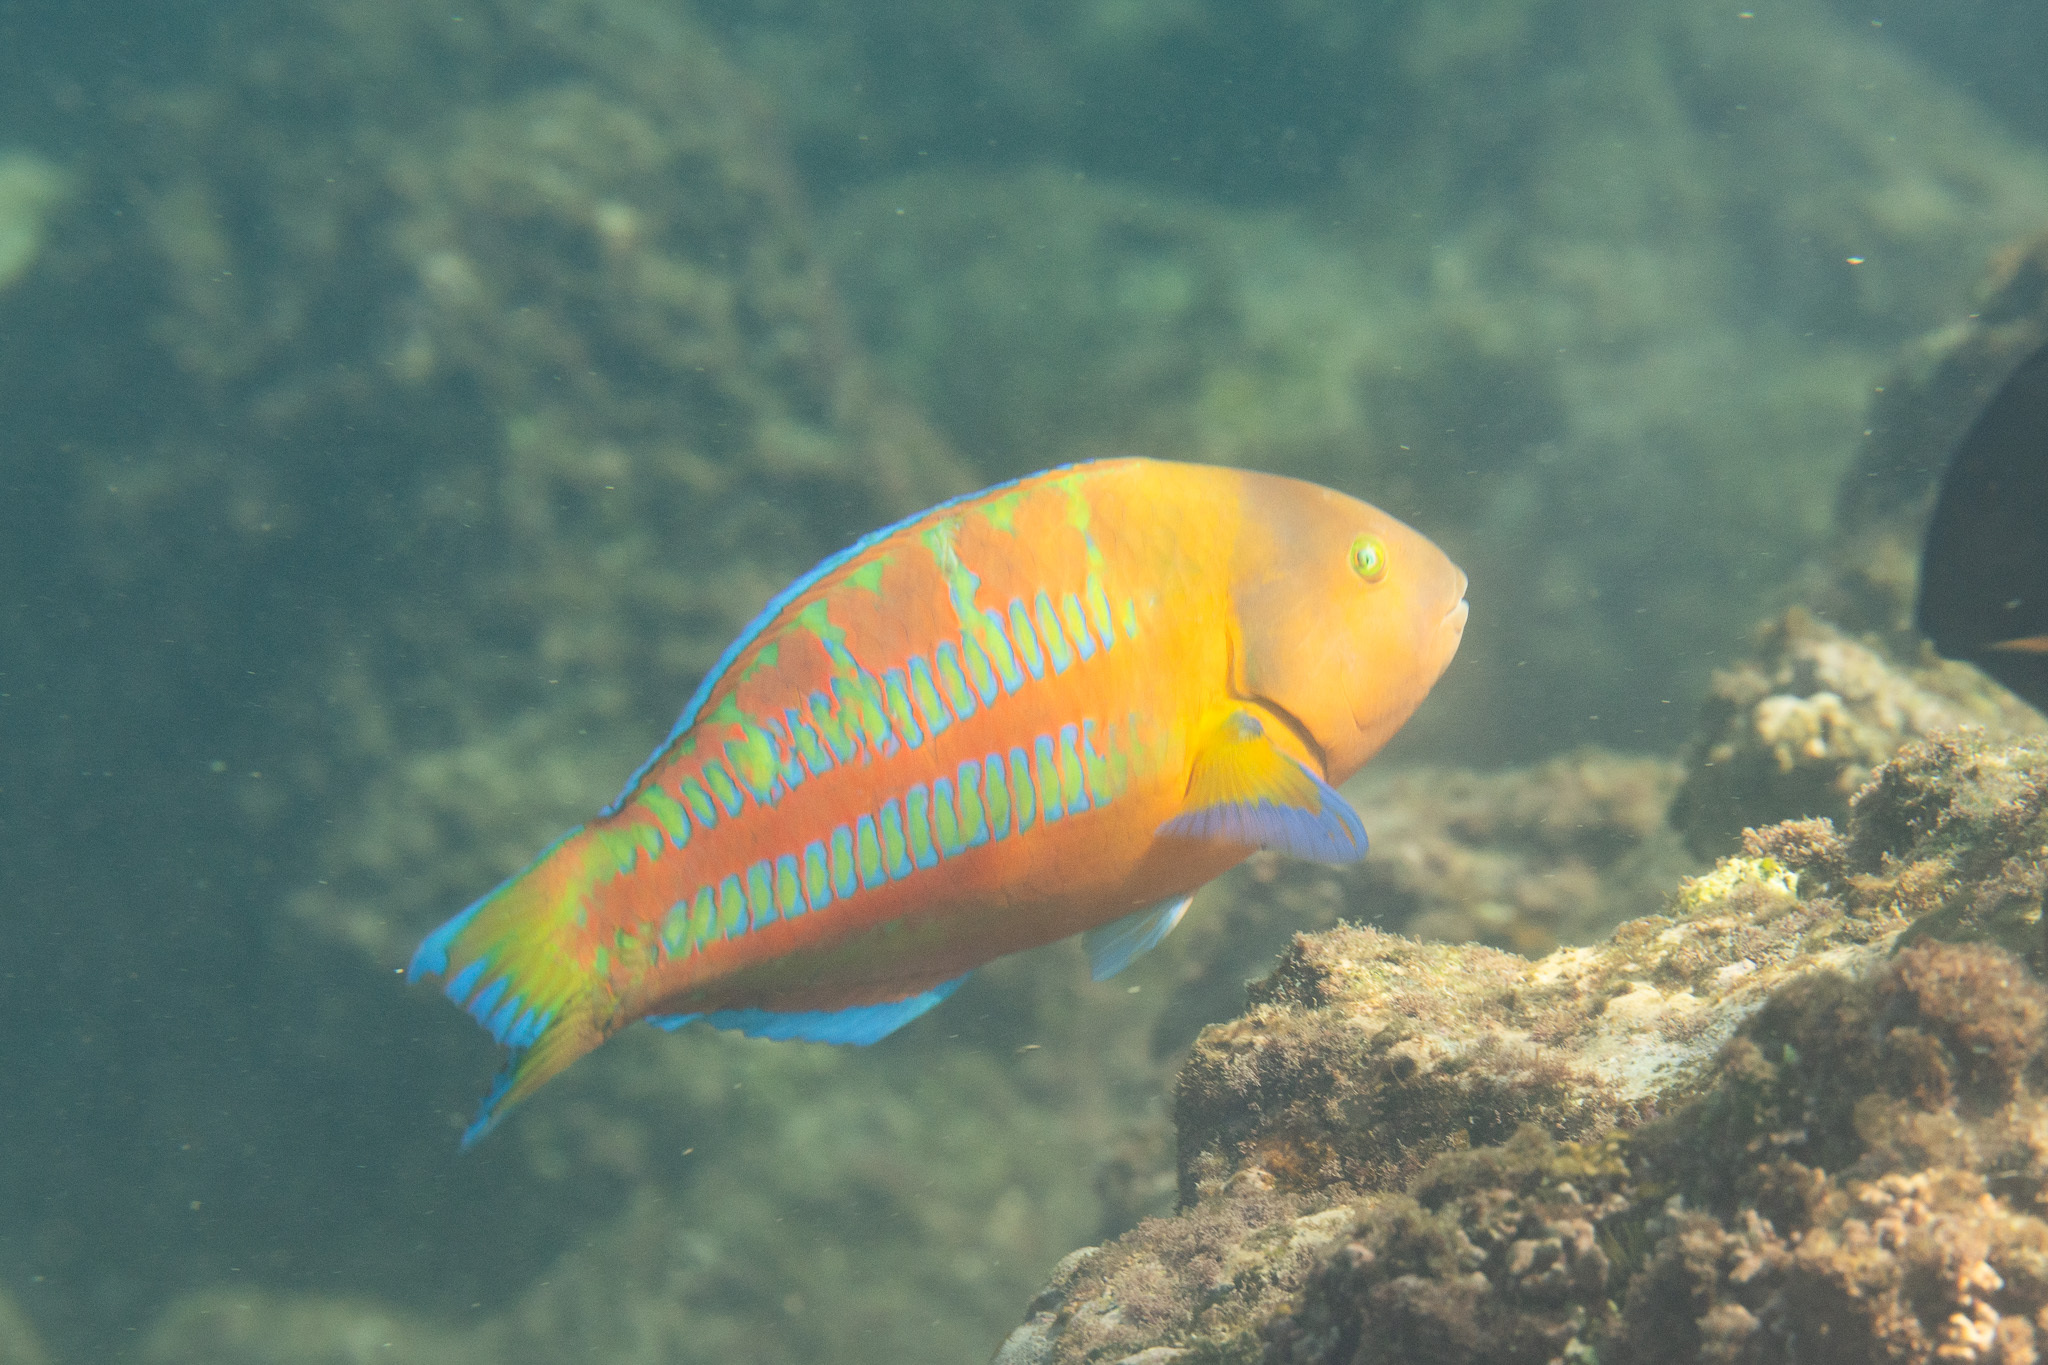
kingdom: Animalia
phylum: Chordata
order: Perciformes
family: Labridae
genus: Thalassoma
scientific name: Thalassoma trilobatum
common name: Christmas wrasse
